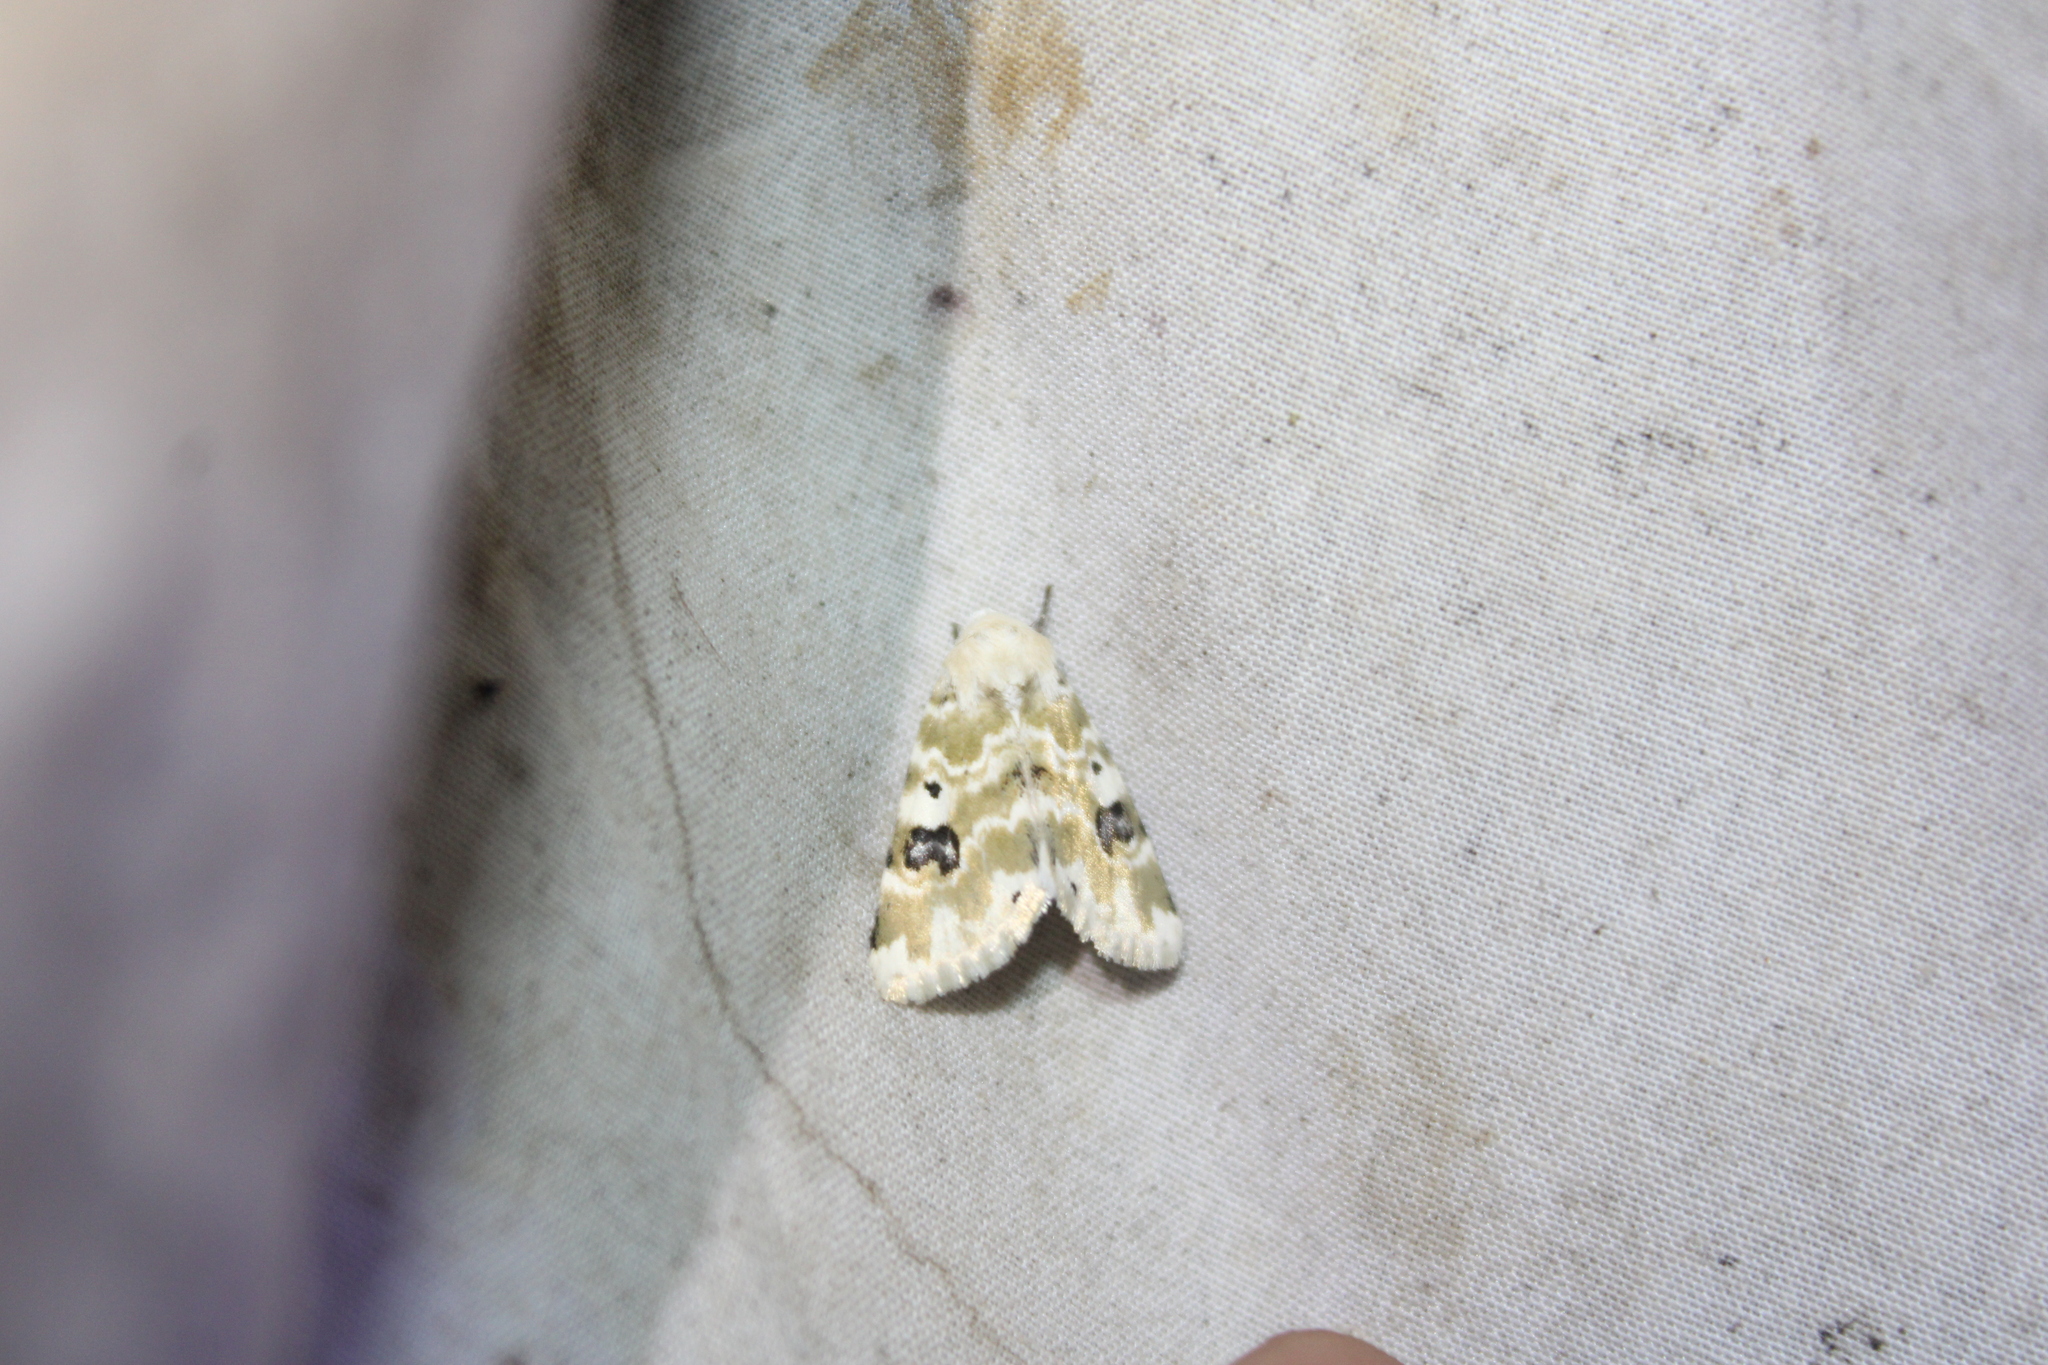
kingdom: Animalia
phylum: Arthropoda
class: Insecta
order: Lepidoptera
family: Noctuidae
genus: Schinia
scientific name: Schinia nundina
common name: Goldenrod flower moth
